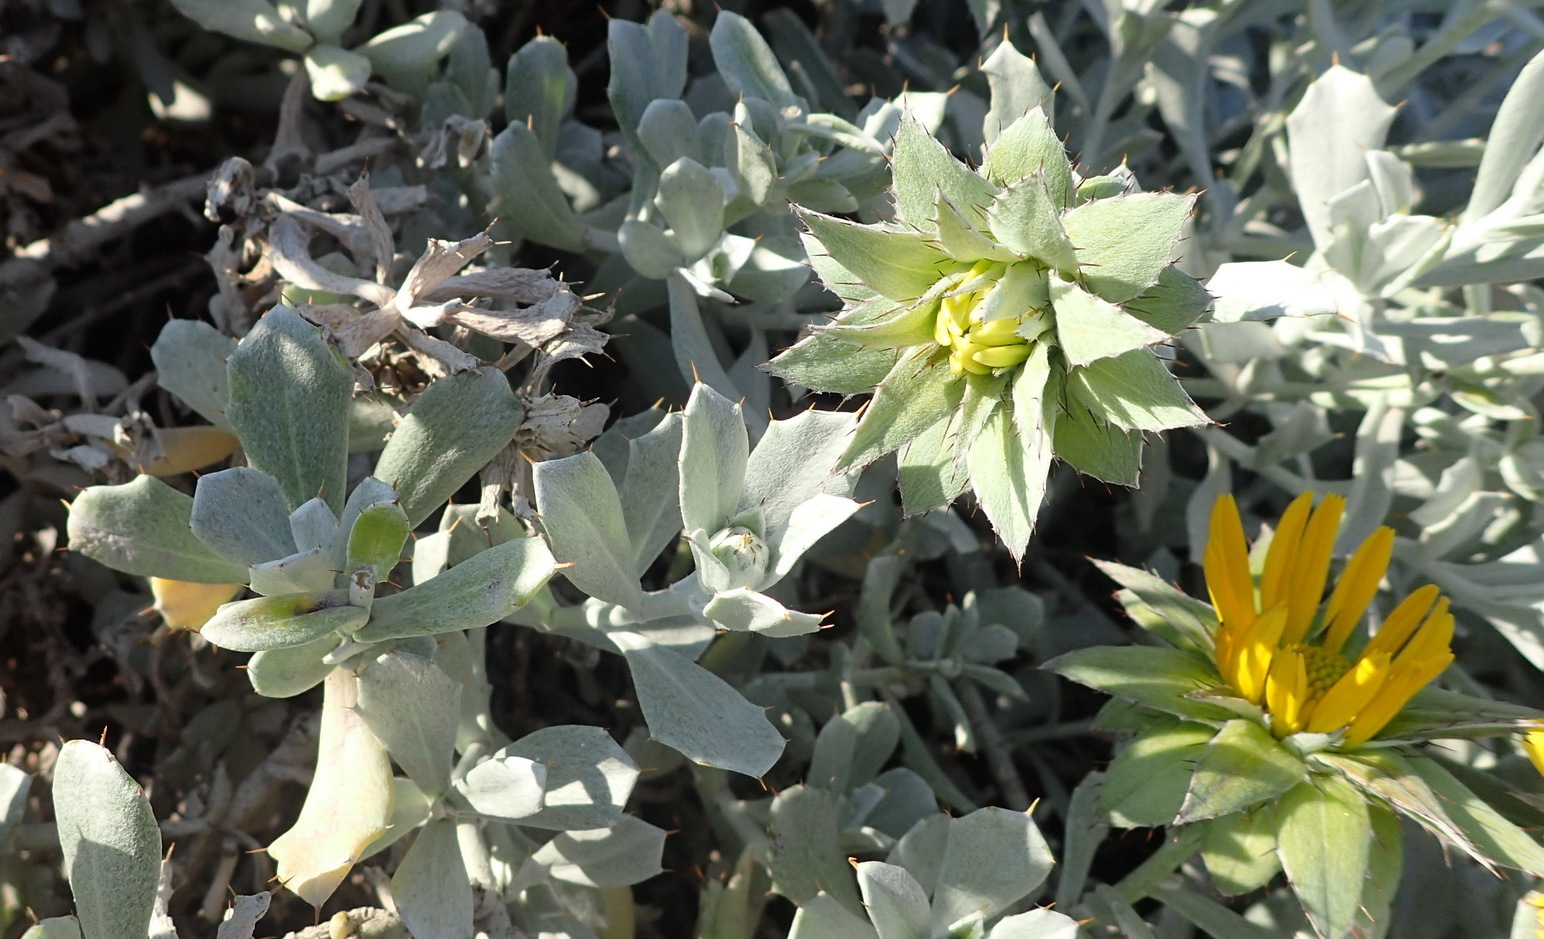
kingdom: Plantae
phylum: Tracheophyta
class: Magnoliopsida
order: Asterales
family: Asteraceae
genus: Berkheya
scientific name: Berkheya cuneata
